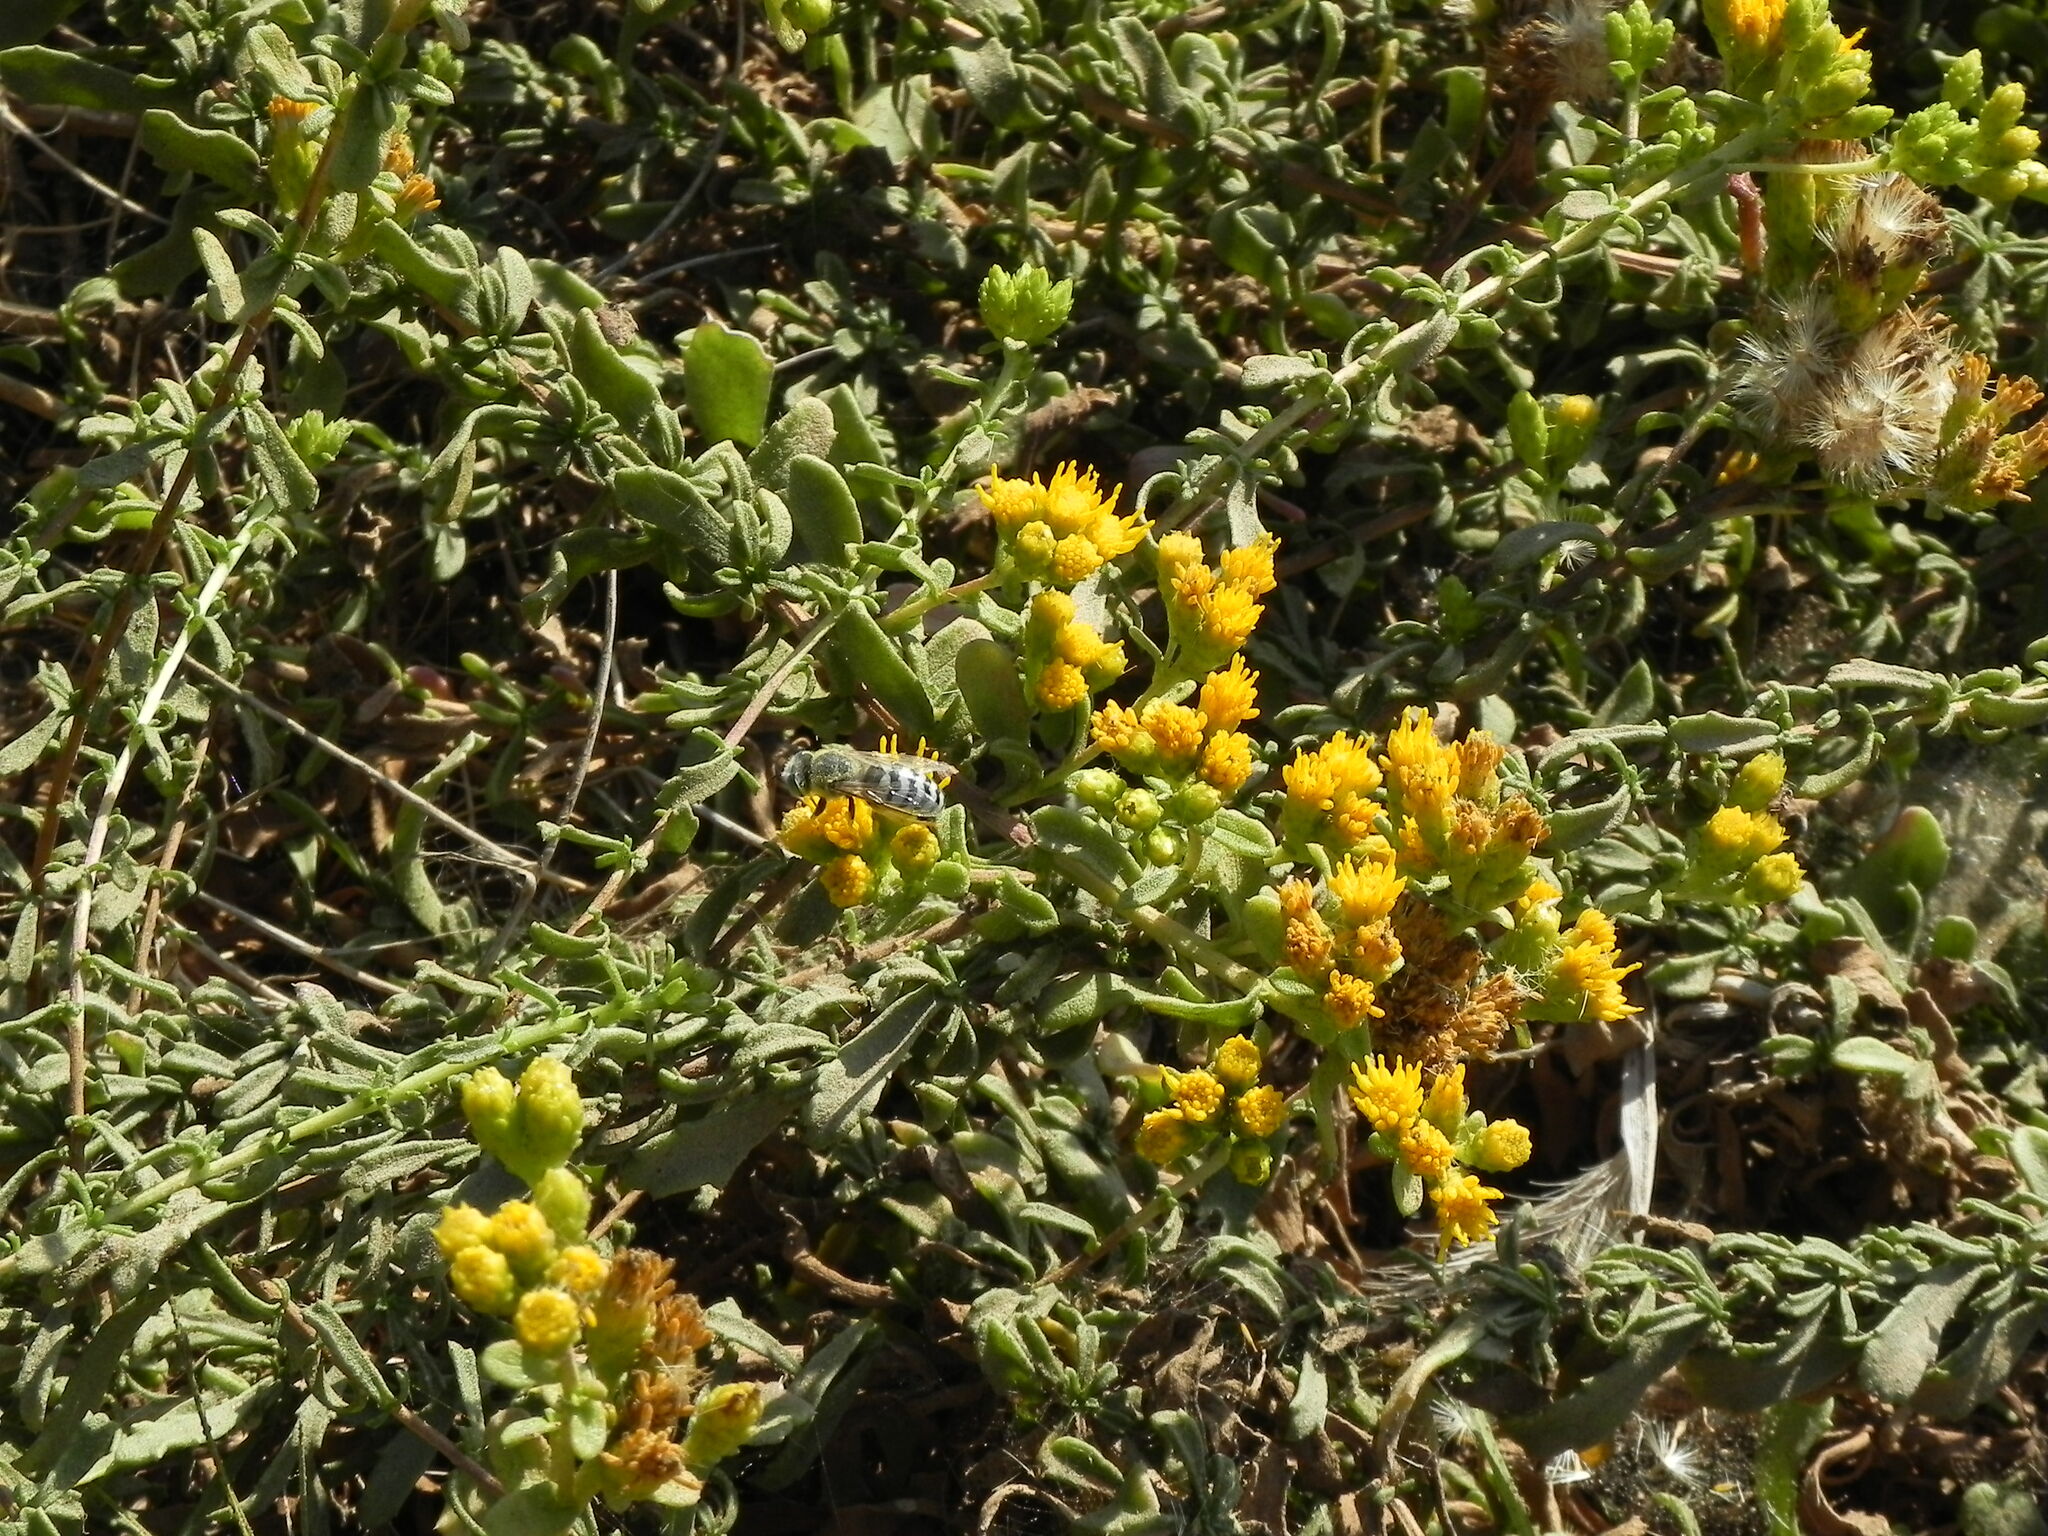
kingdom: Animalia
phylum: Arthropoda
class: Insecta
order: Hymenoptera
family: Crabronidae
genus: Bembix
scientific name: Bembix americana
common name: American sand wasp
